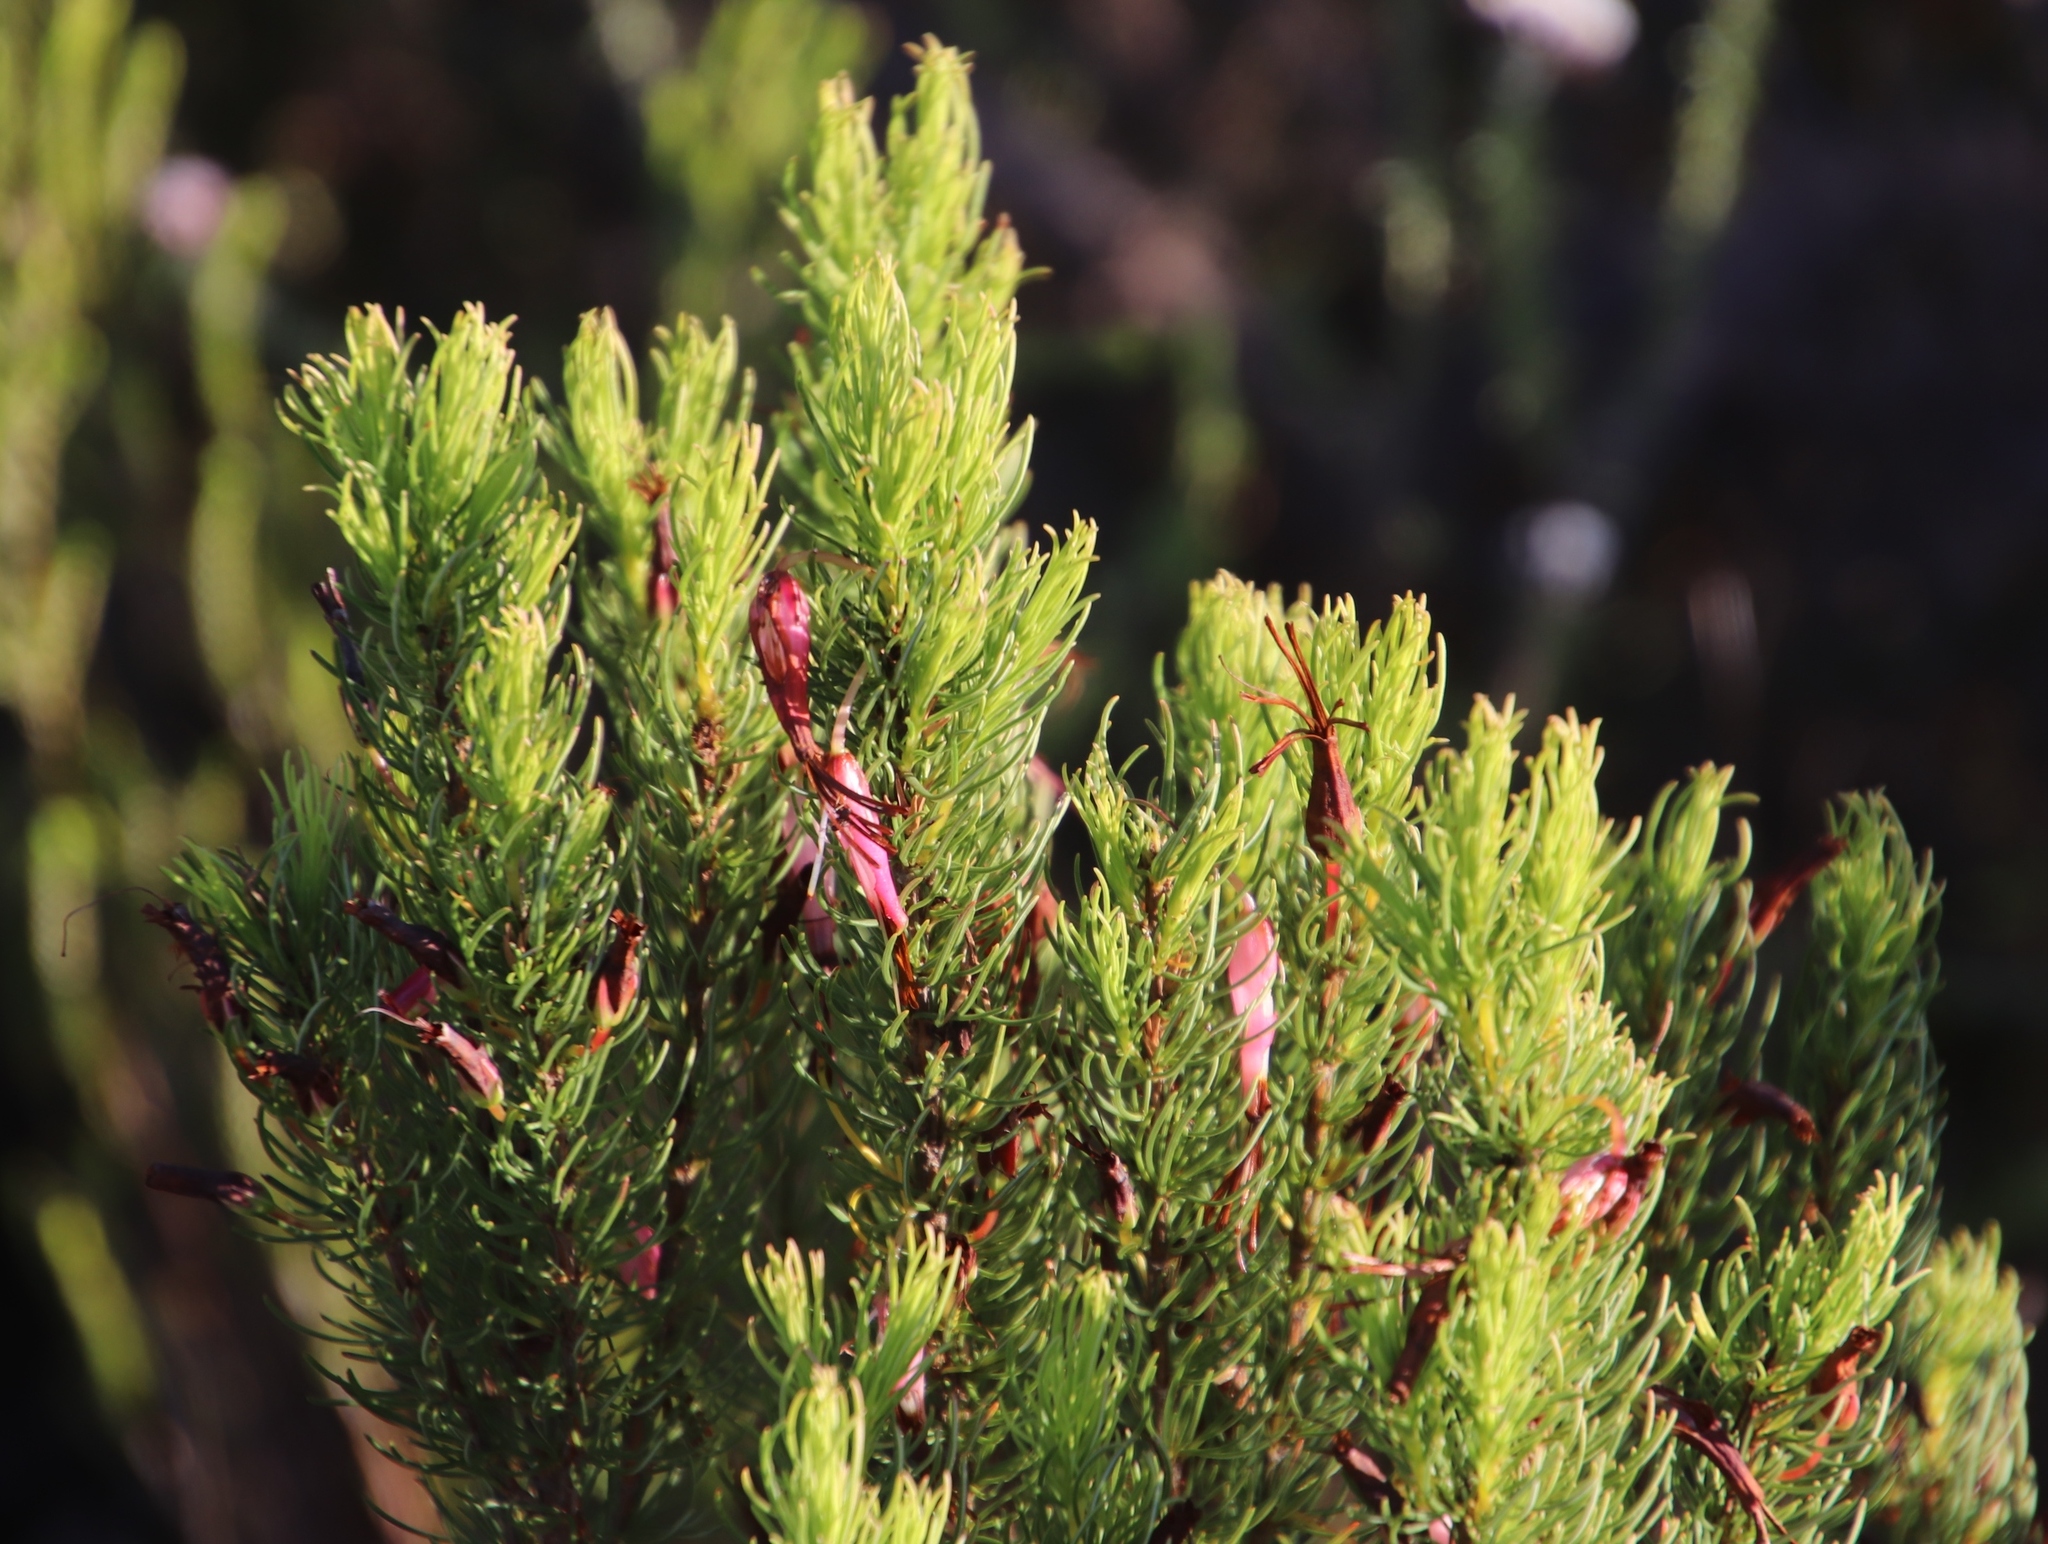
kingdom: Plantae
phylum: Tracheophyta
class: Magnoliopsida
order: Ericales
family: Ericaceae
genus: Erica
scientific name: Erica plukenetii
